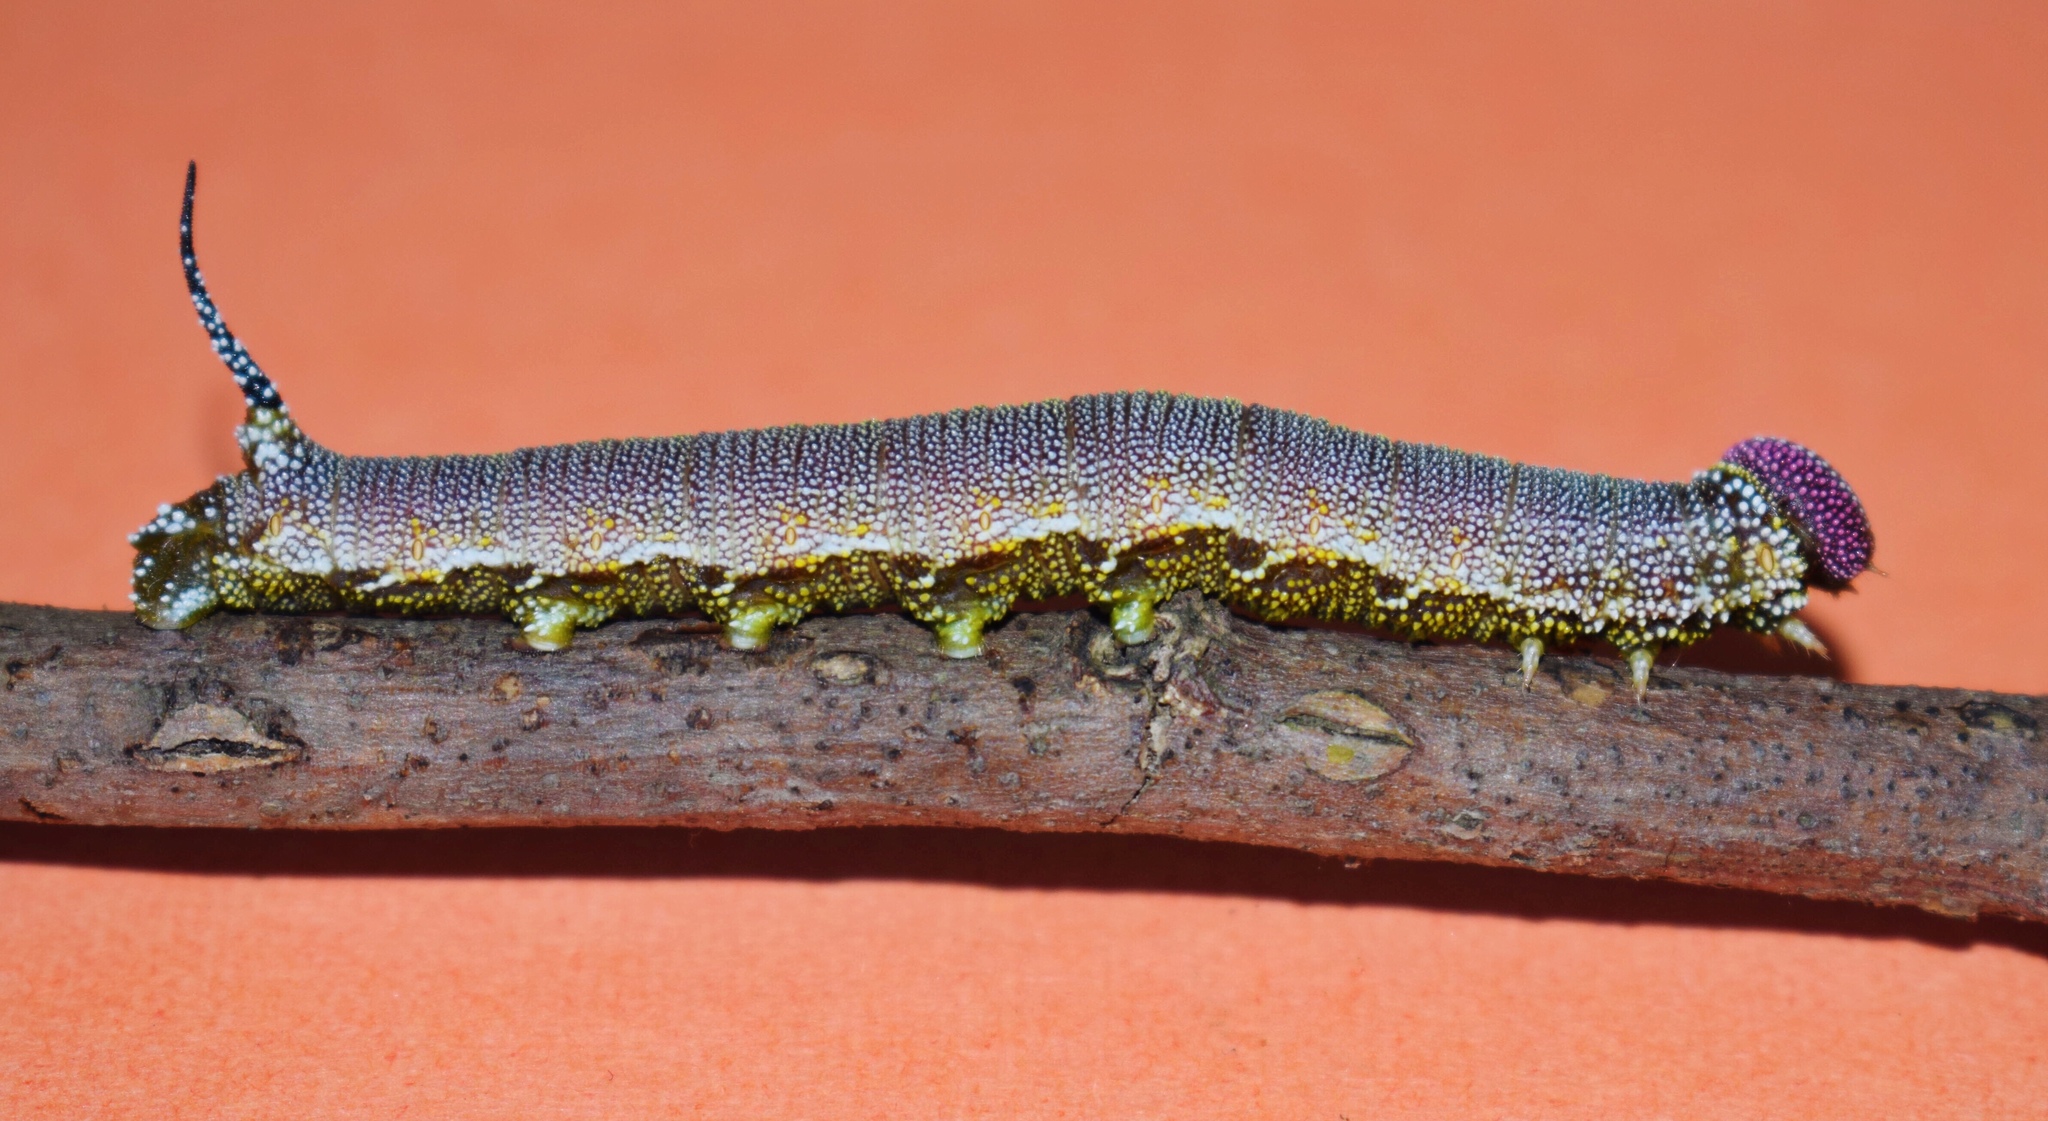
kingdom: Animalia
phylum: Arthropoda
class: Insecta
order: Lepidoptera
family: Sphingidae
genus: Pseudandriasa
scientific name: Pseudandriasa mutata
